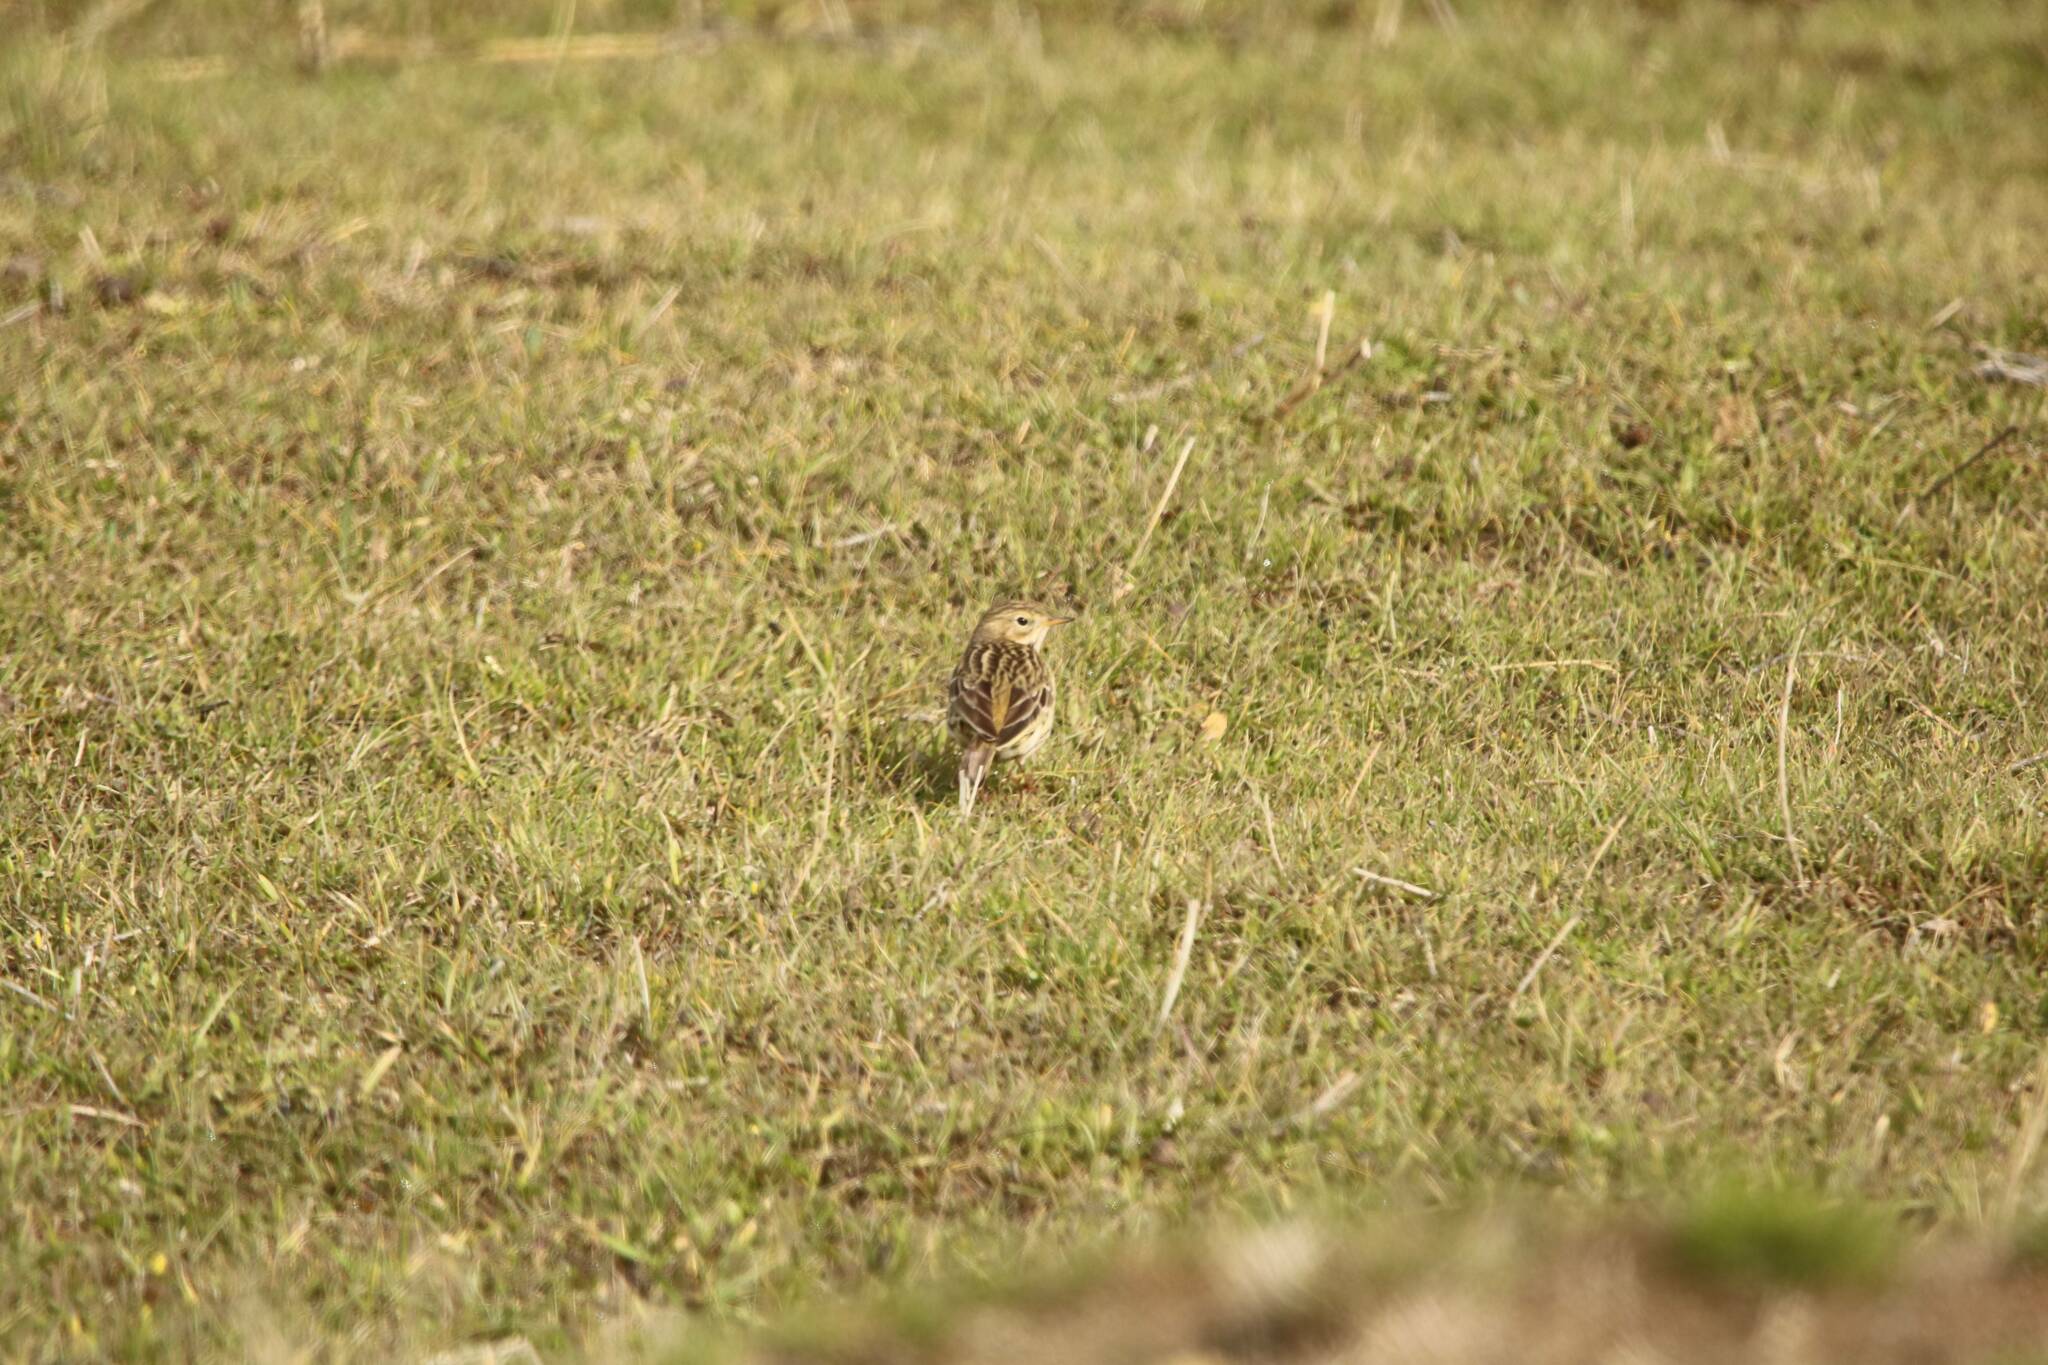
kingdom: Animalia
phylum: Chordata
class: Aves
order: Passeriformes
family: Motacillidae
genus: Anthus
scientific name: Anthus pratensis
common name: Meadow pipit
